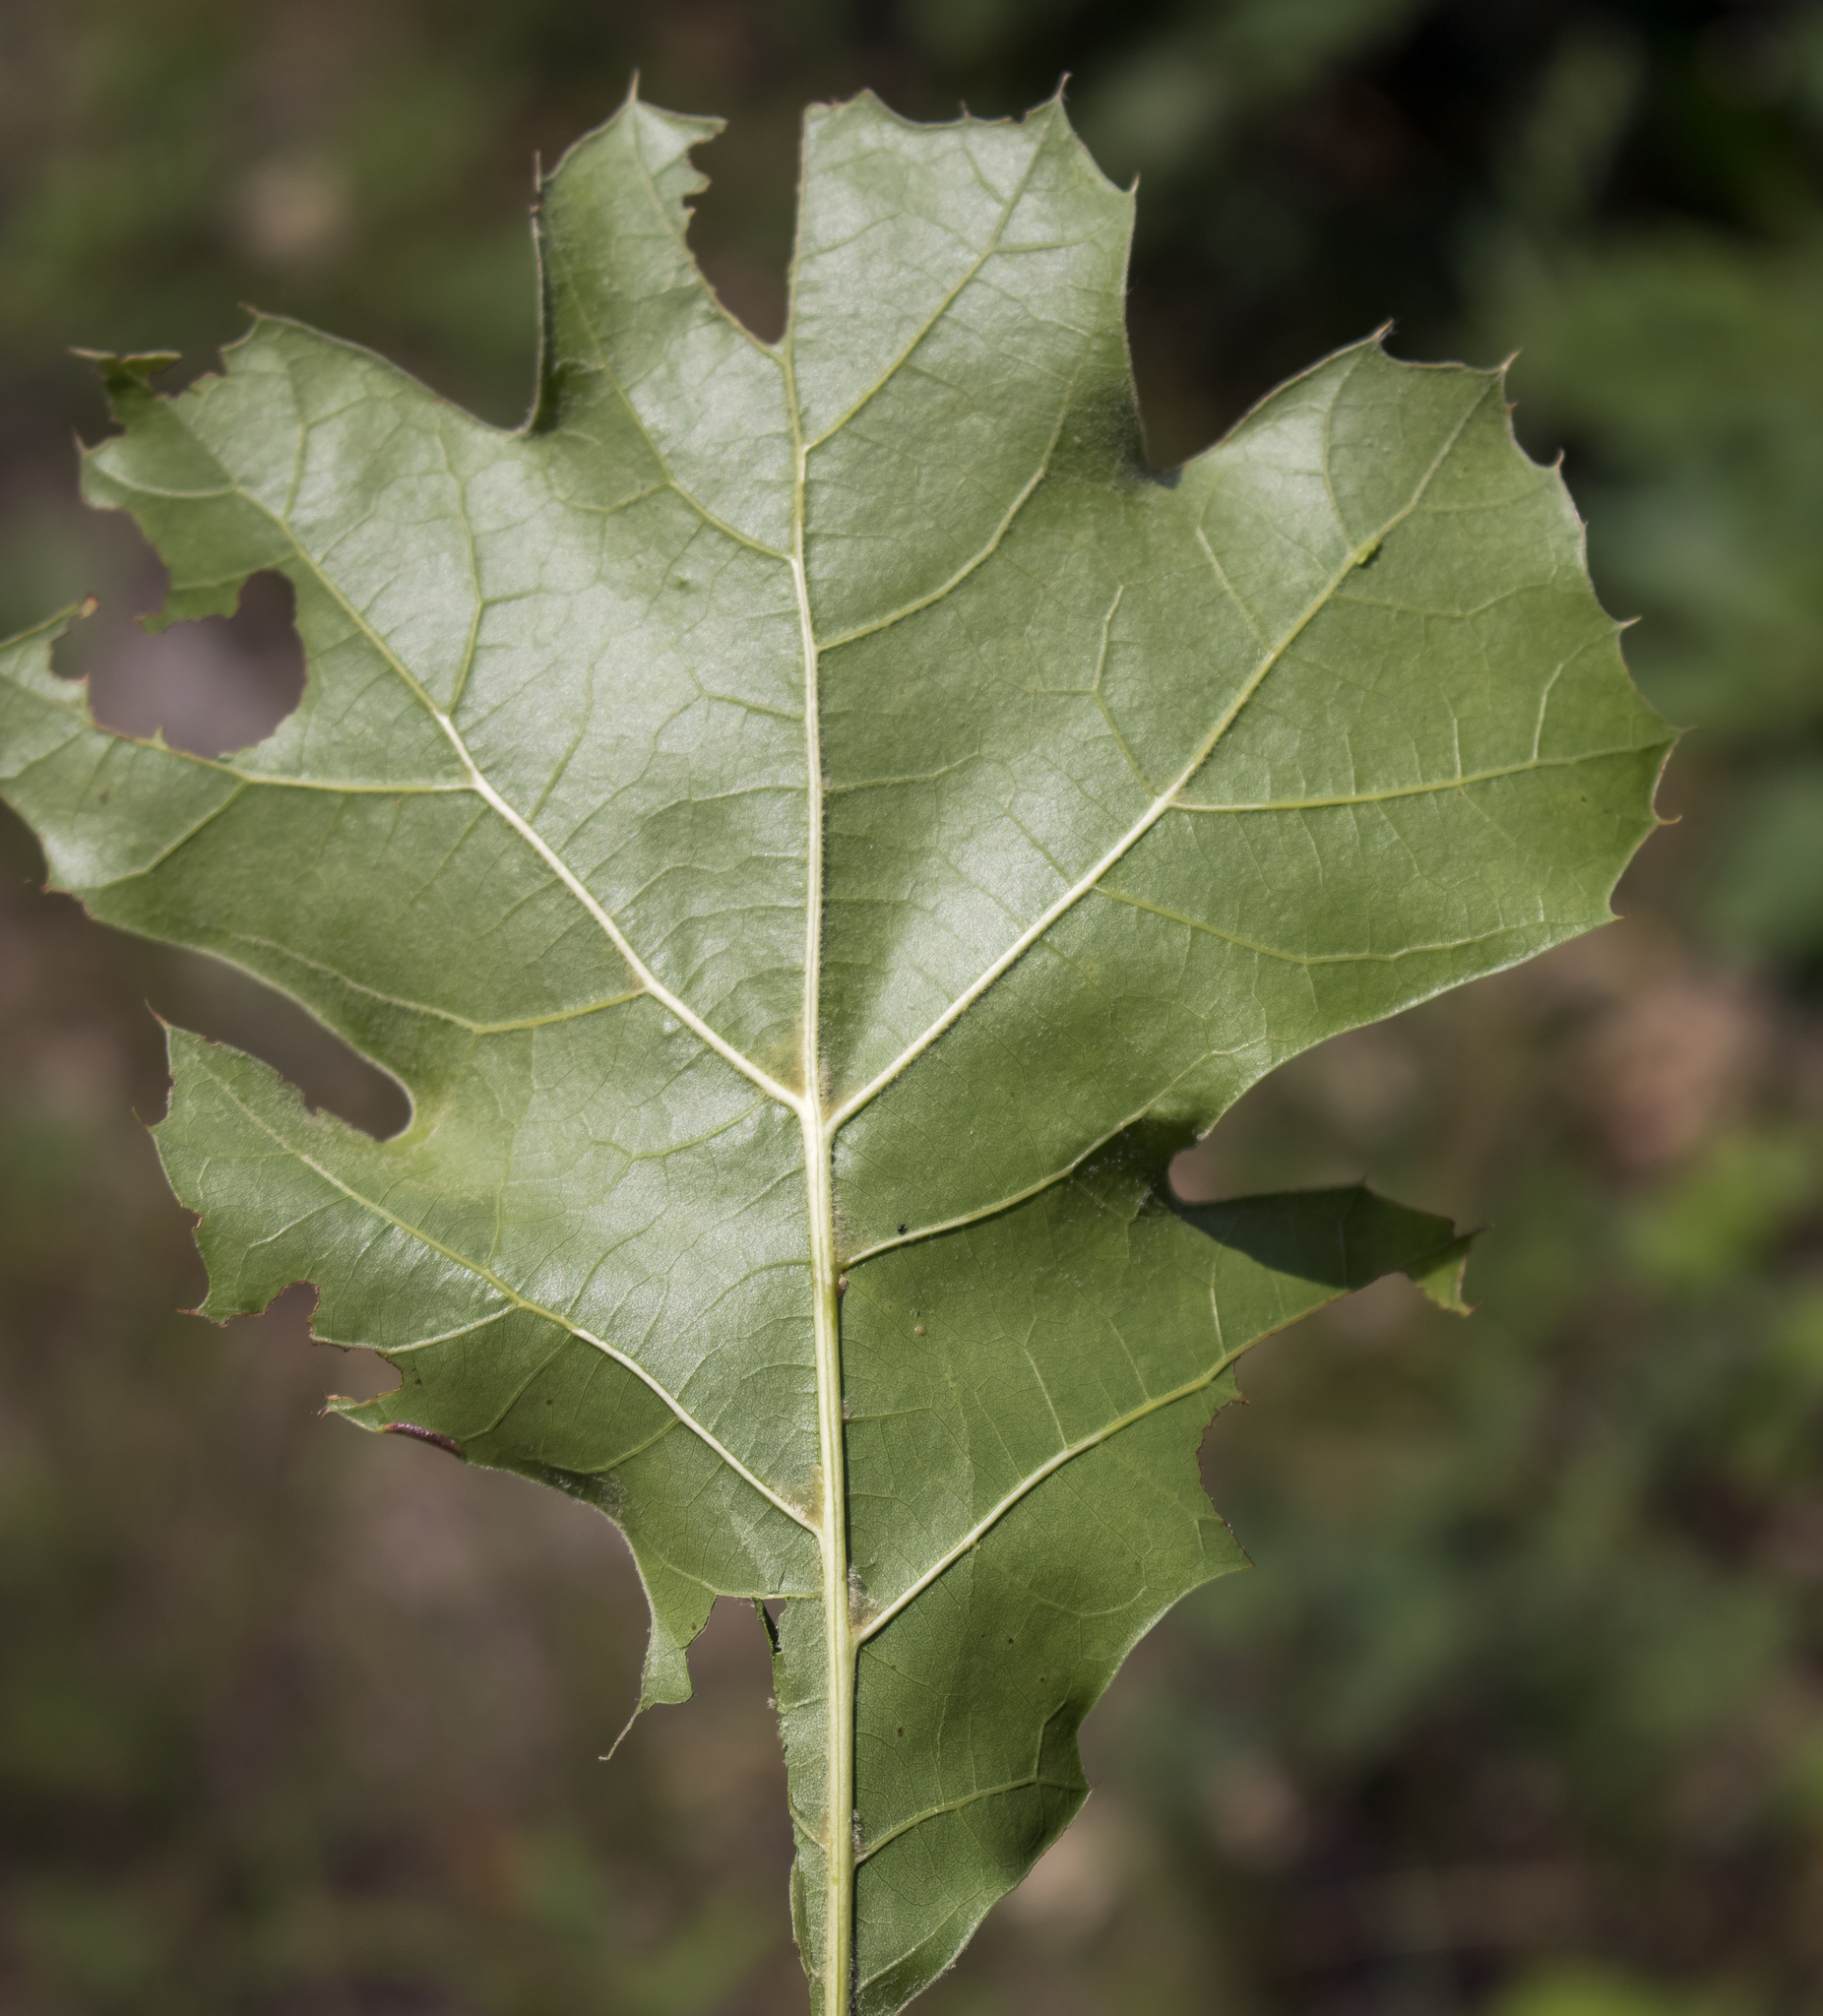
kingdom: Plantae
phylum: Tracheophyta
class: Magnoliopsida
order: Fagales
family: Fagaceae
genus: Quercus
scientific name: Quercus velutina
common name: Black oak
